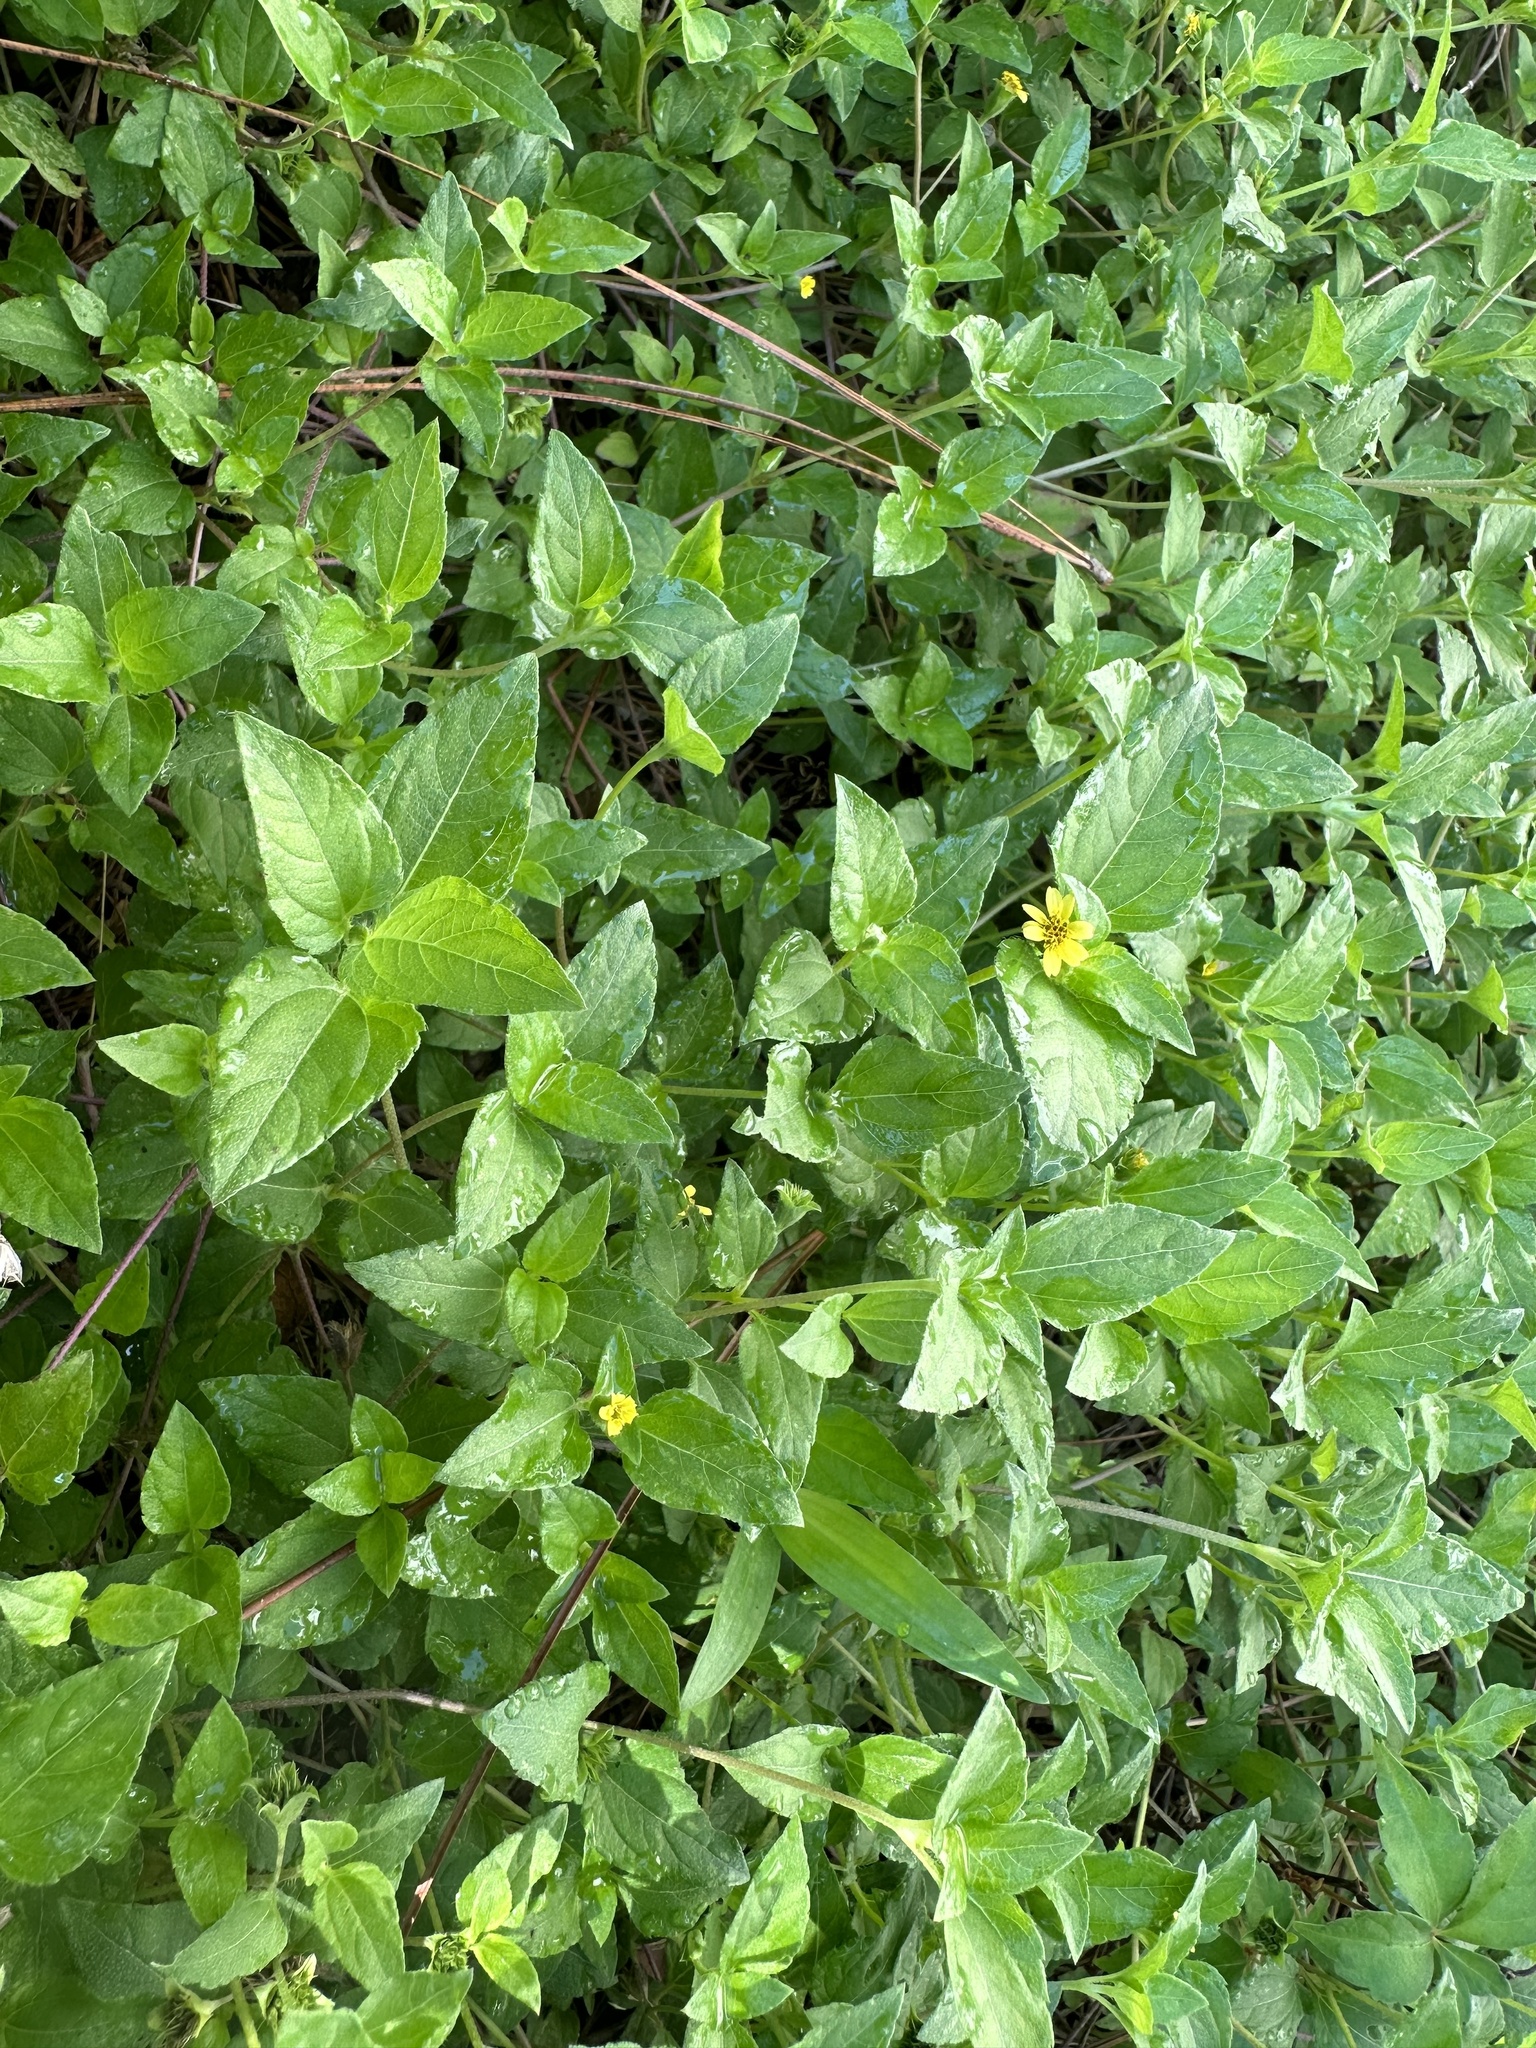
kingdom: Plantae
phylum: Tracheophyta
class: Magnoliopsida
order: Asterales
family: Asteraceae
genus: Calyptocarpus
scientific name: Calyptocarpus vialis
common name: Straggler daisy
